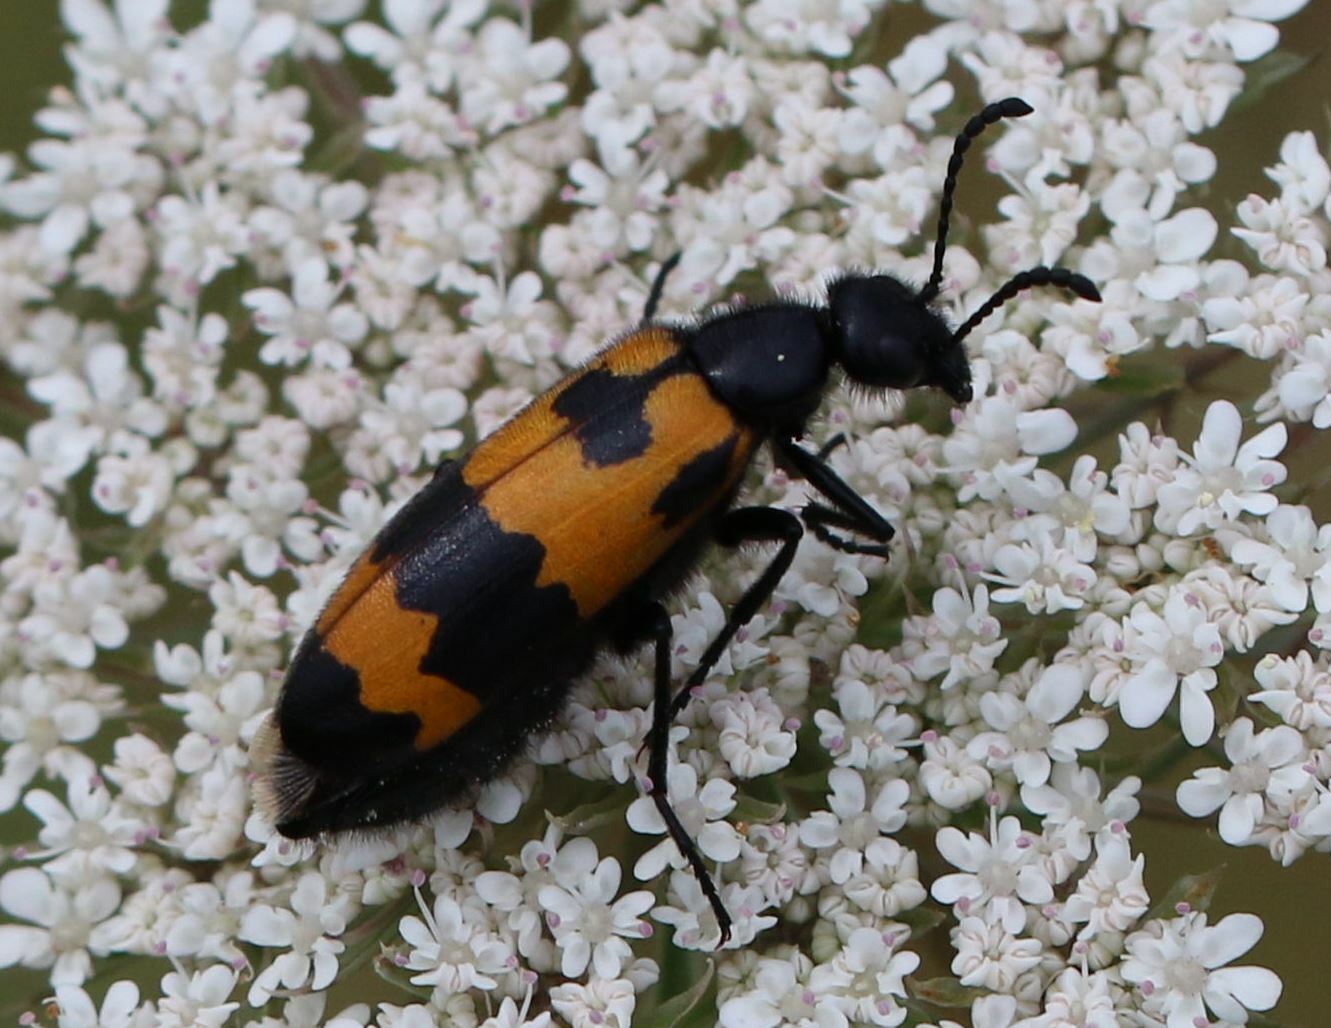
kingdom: Animalia
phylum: Arthropoda
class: Insecta
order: Coleoptera
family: Meloidae
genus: Mylabris
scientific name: Mylabris variabilis
